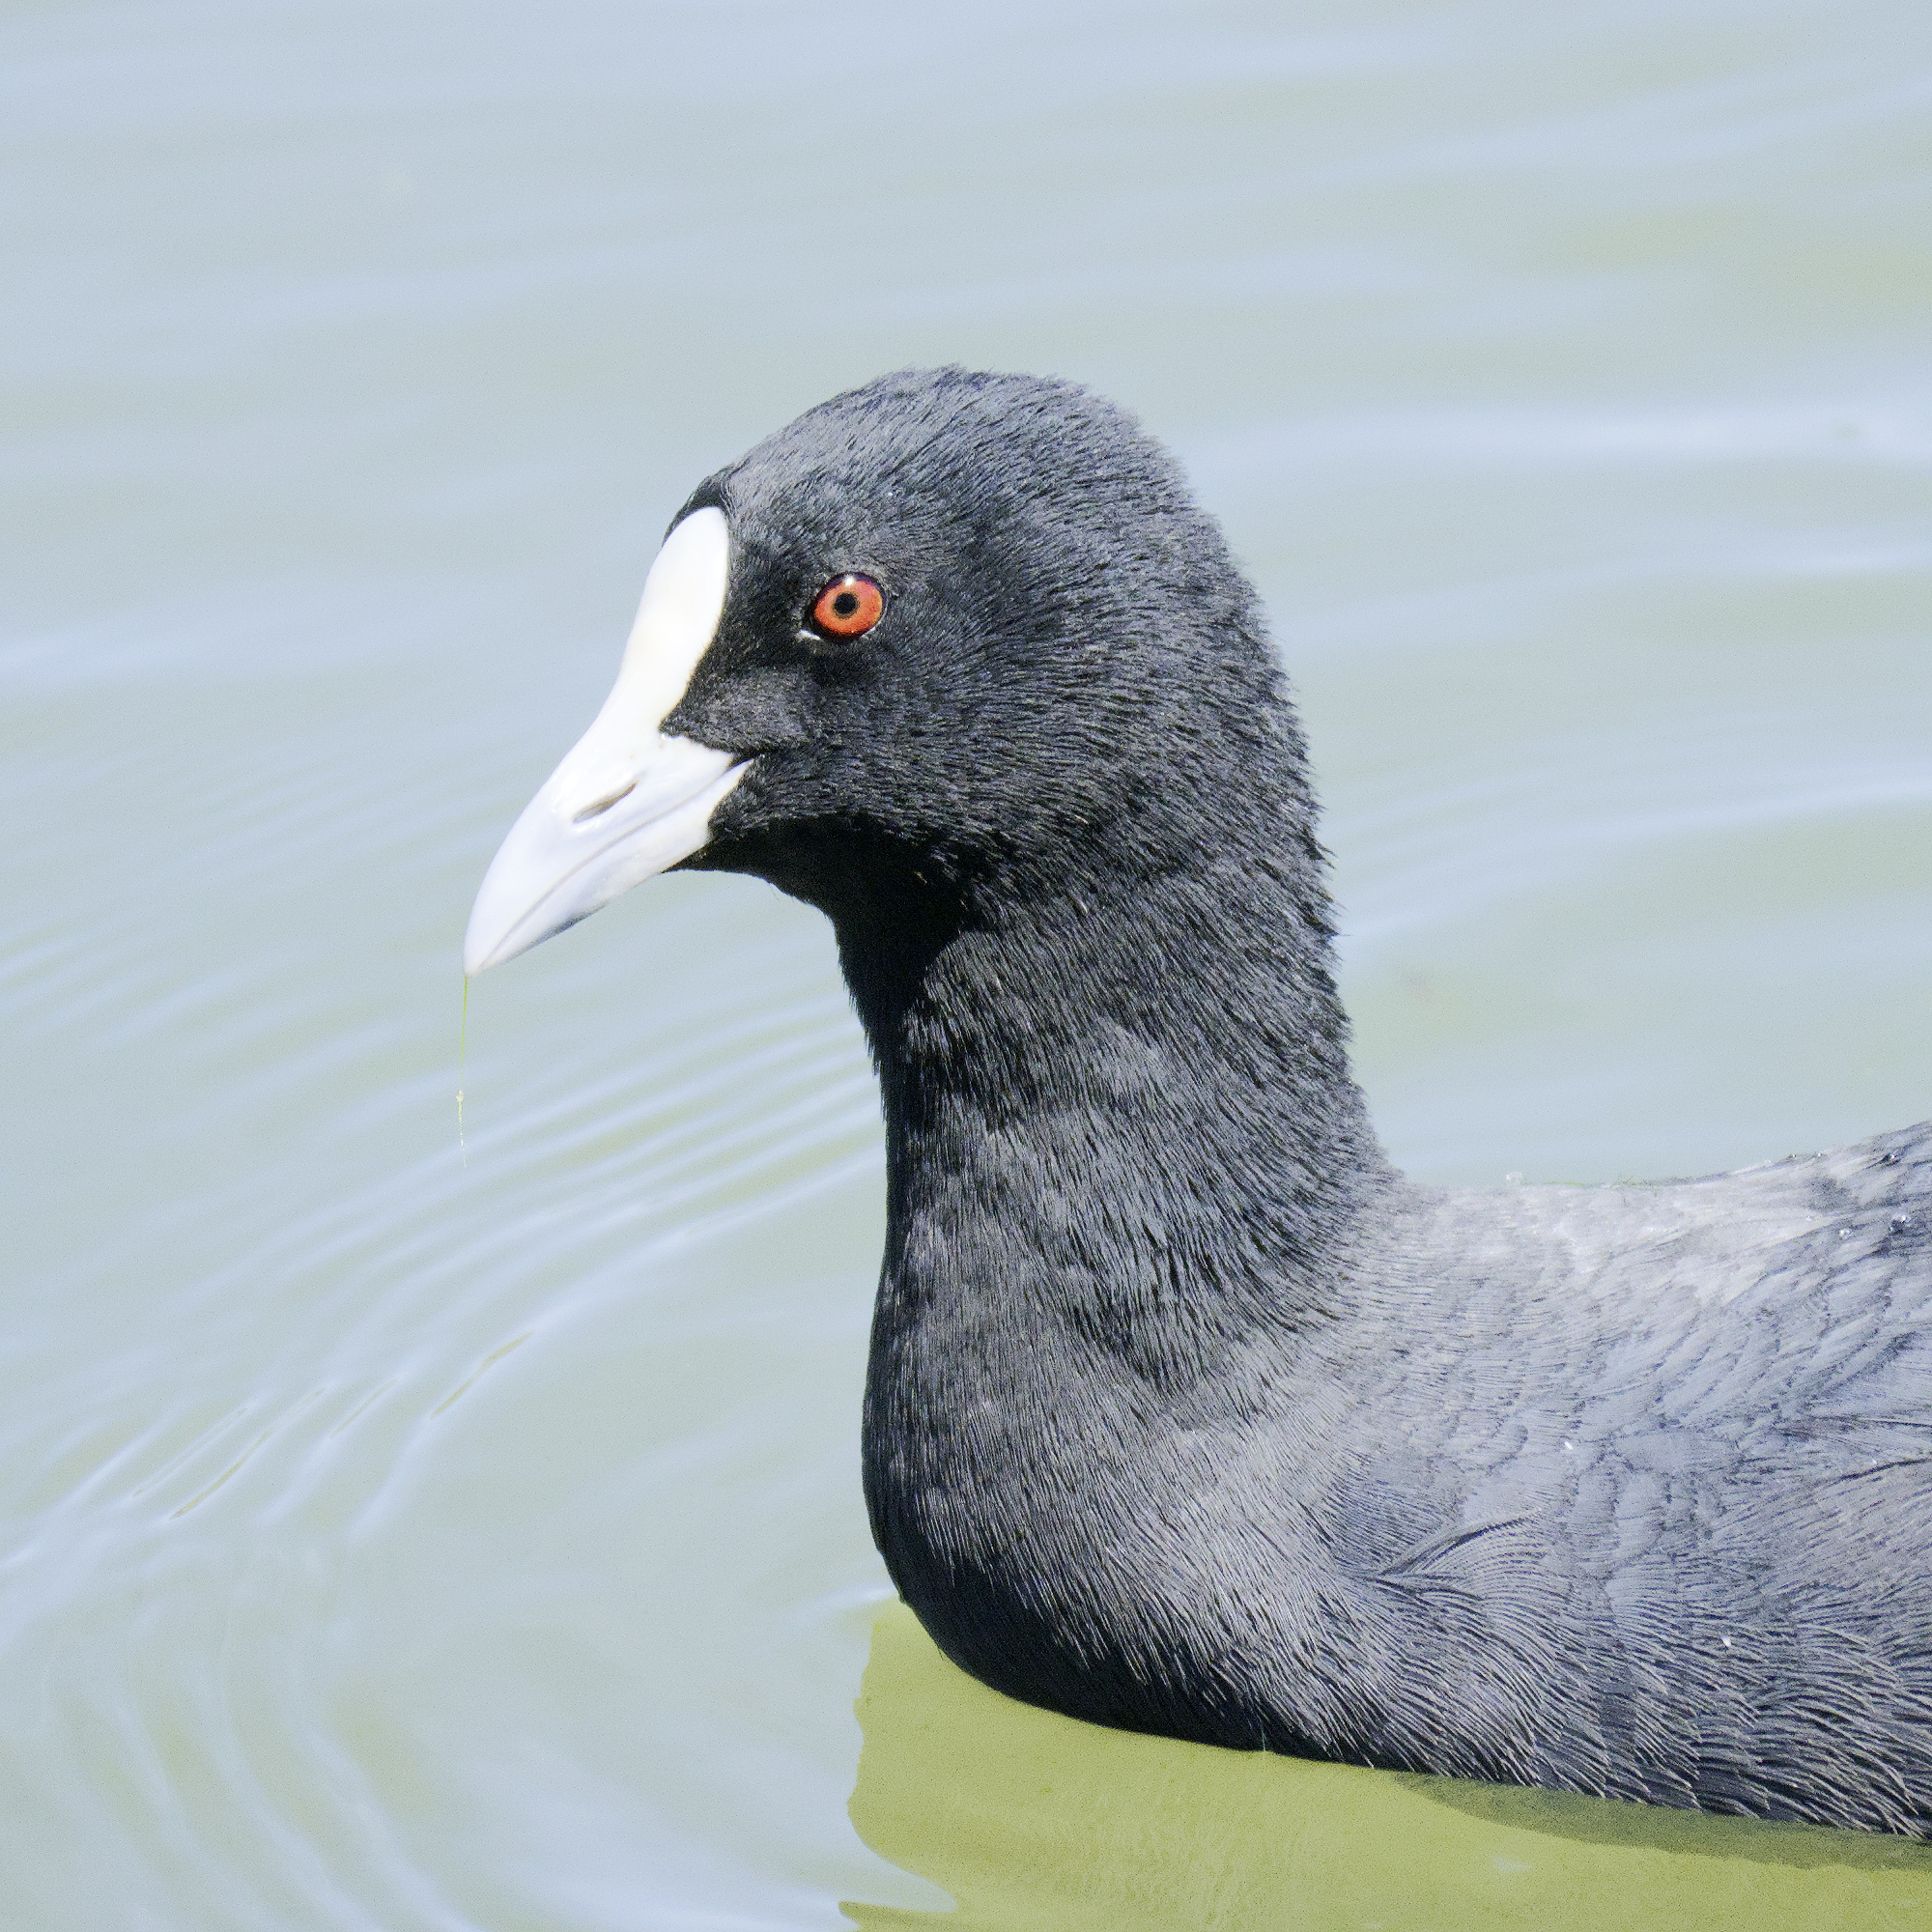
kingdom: Animalia
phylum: Chordata
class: Aves
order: Gruiformes
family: Rallidae
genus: Fulica
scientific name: Fulica atra
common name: Eurasian coot
